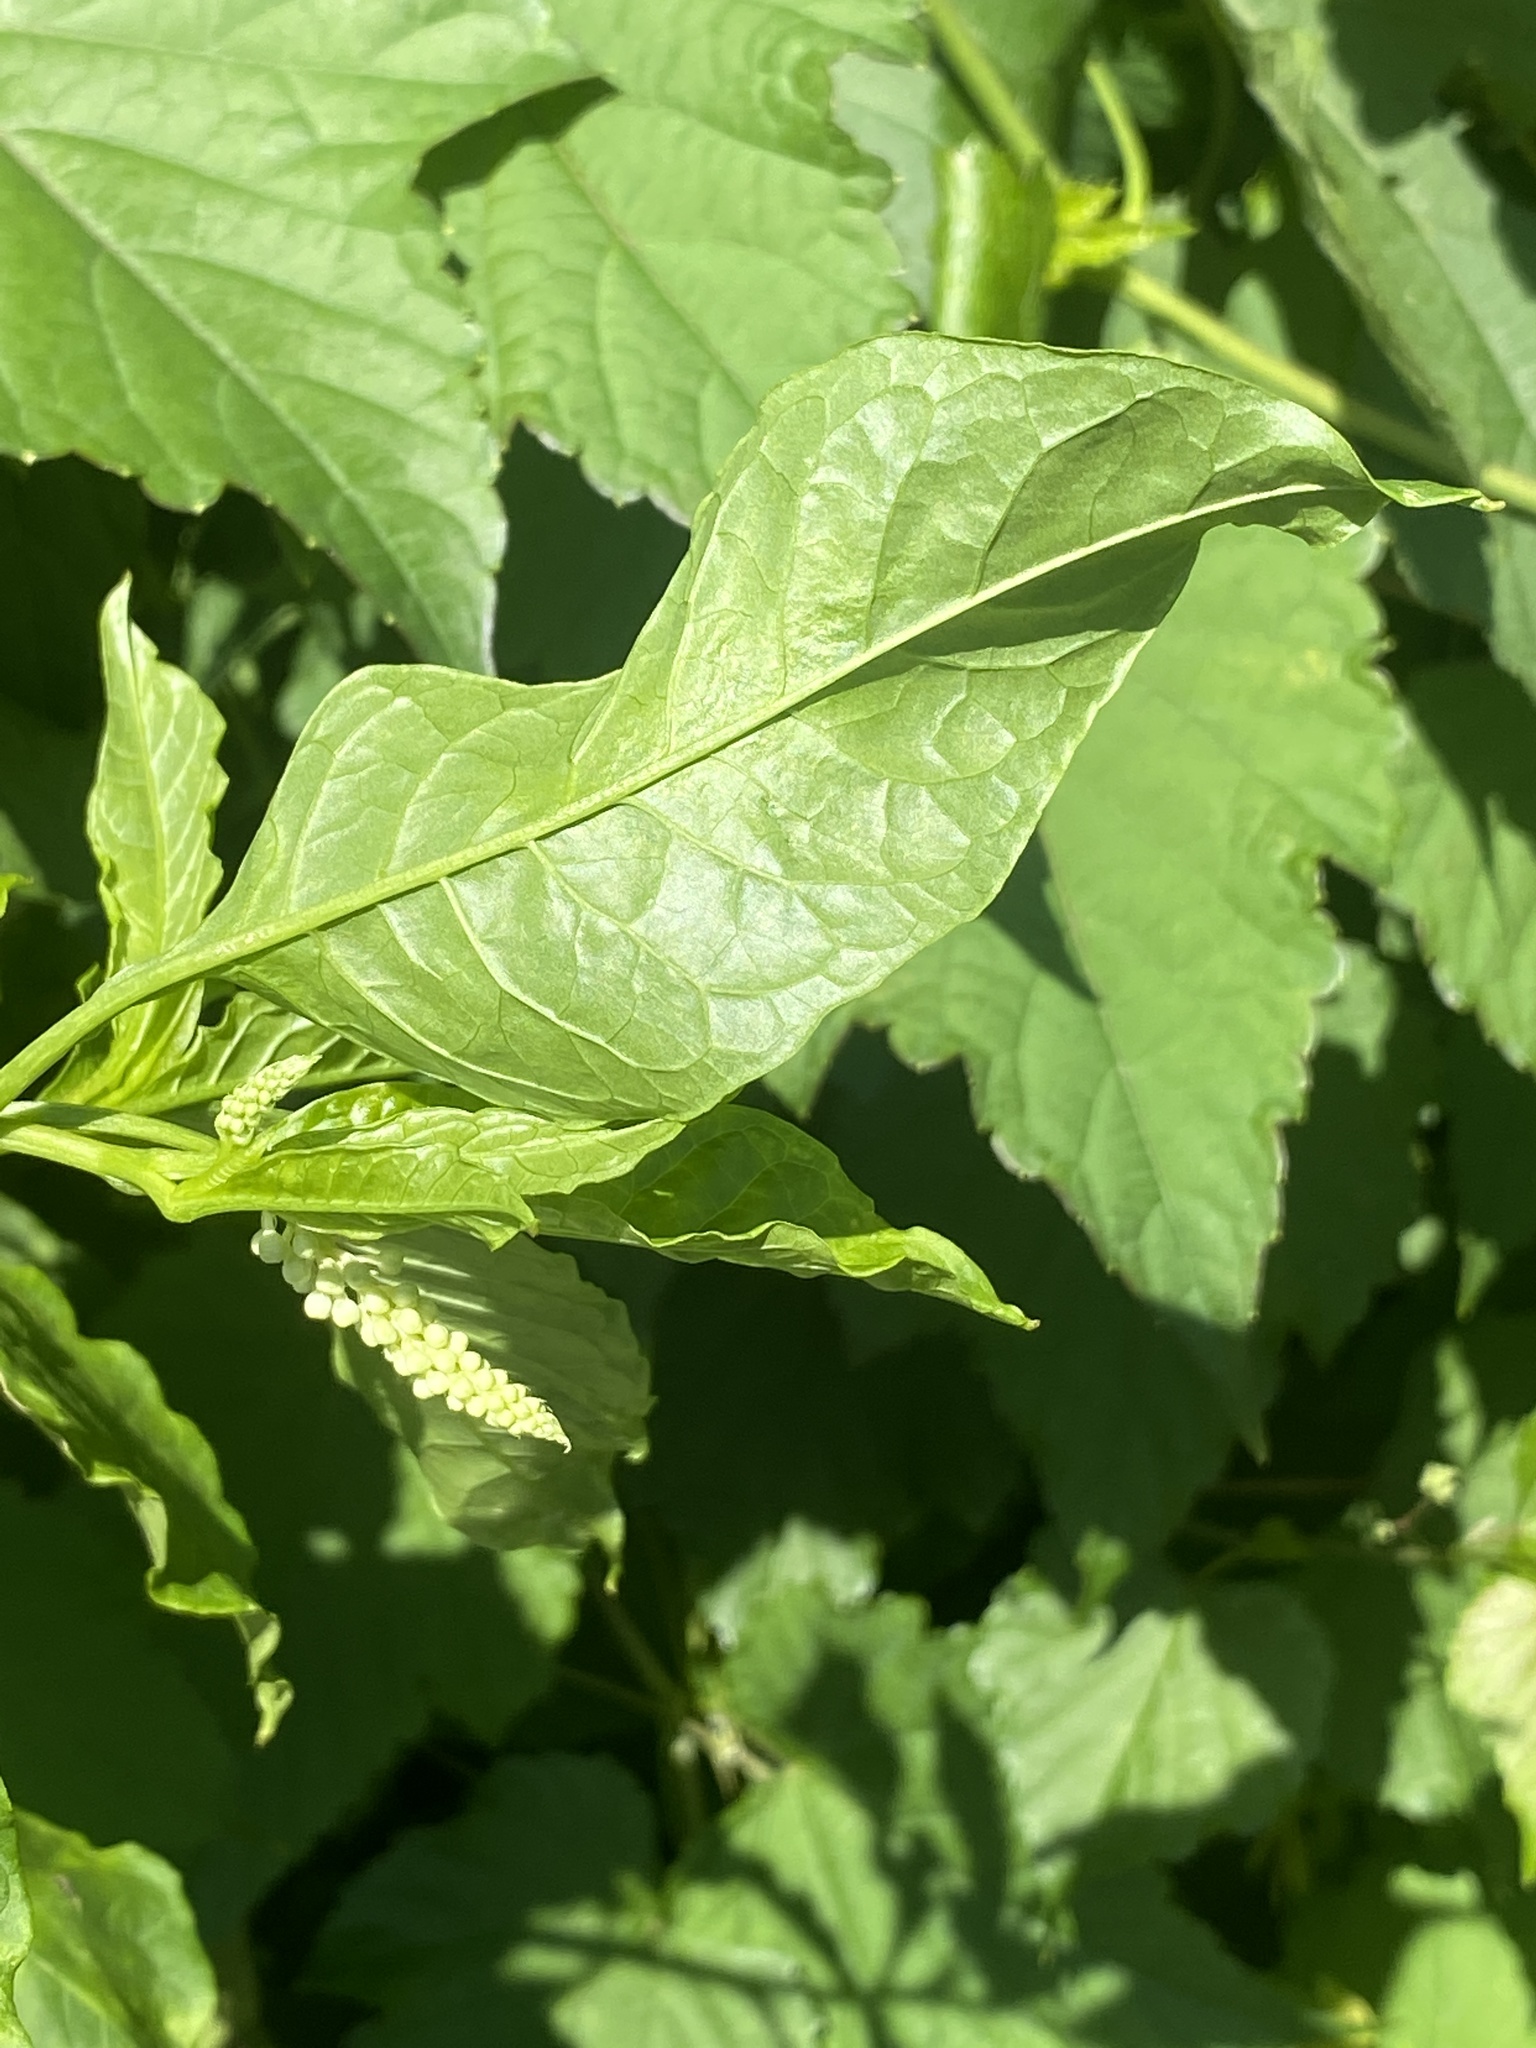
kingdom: Plantae
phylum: Tracheophyta
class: Magnoliopsida
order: Caryophyllales
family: Phytolaccaceae
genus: Phytolacca
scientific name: Phytolacca americana
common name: American pokeweed
